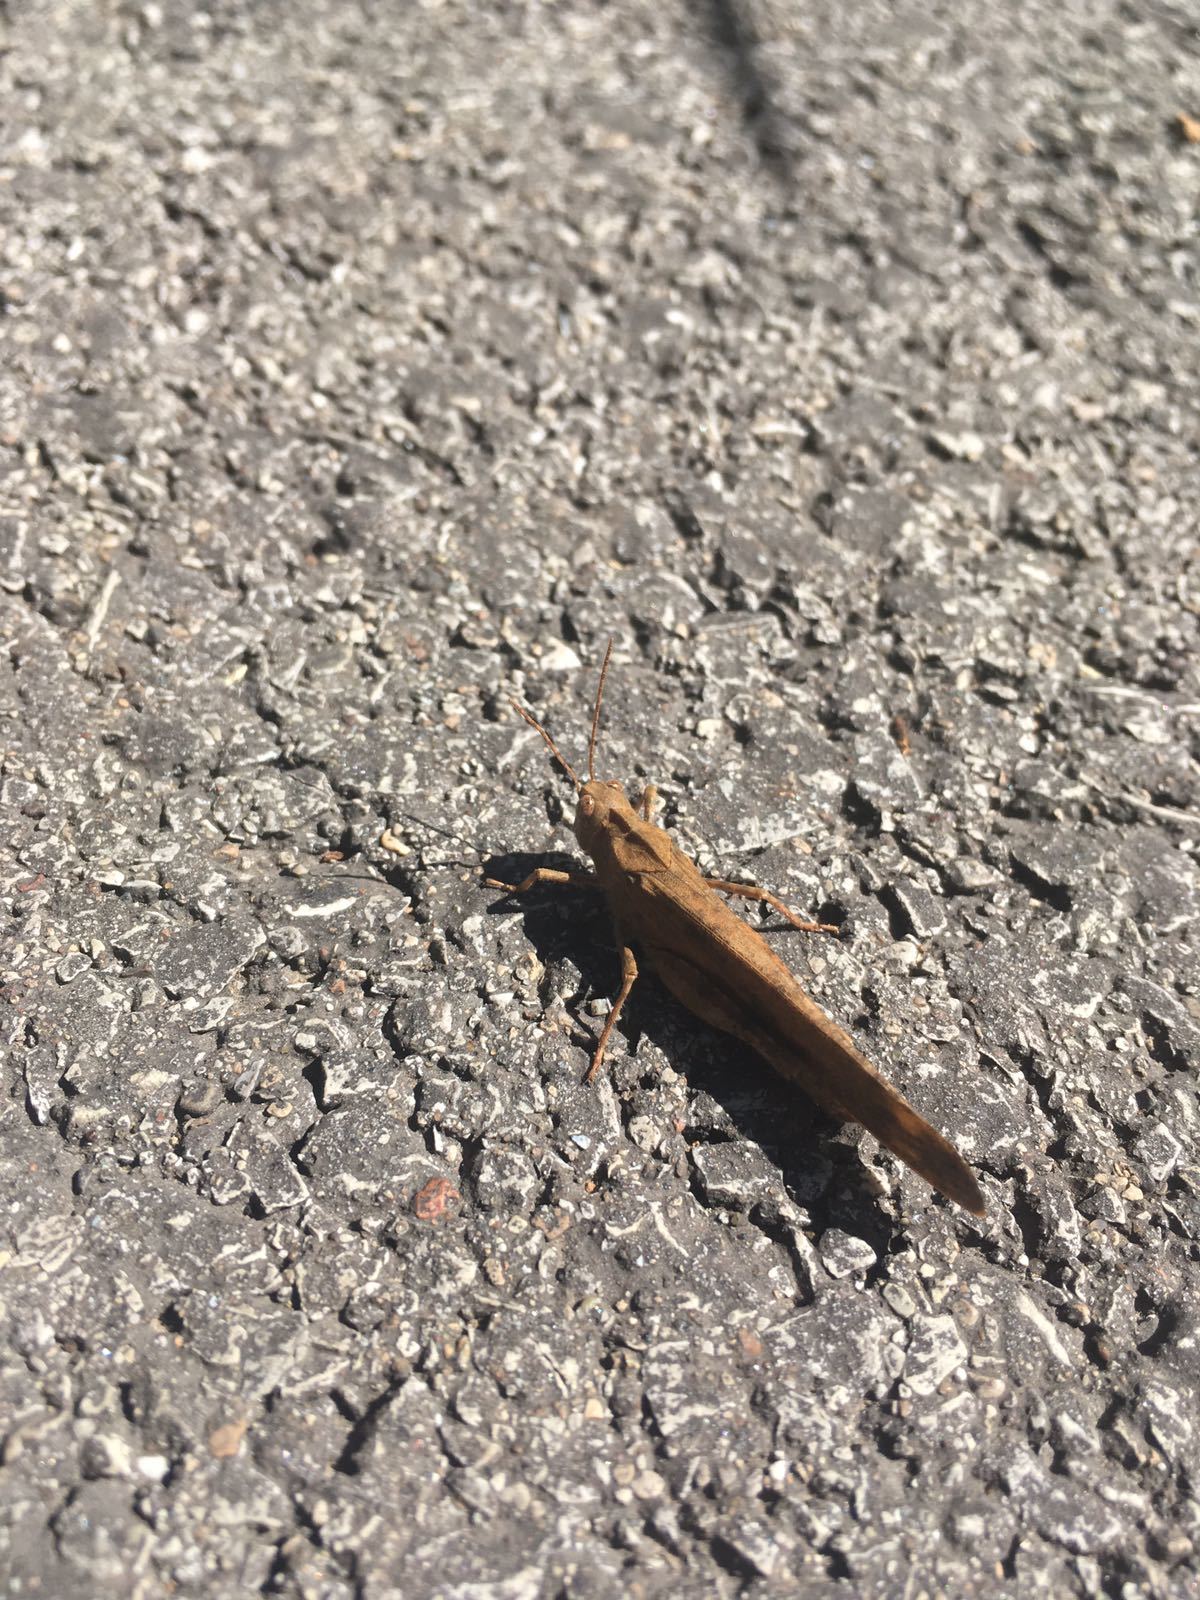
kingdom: Animalia
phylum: Arthropoda
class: Insecta
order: Orthoptera
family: Acrididae
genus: Dissosteira
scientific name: Dissosteira carolina
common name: Carolina grasshopper
